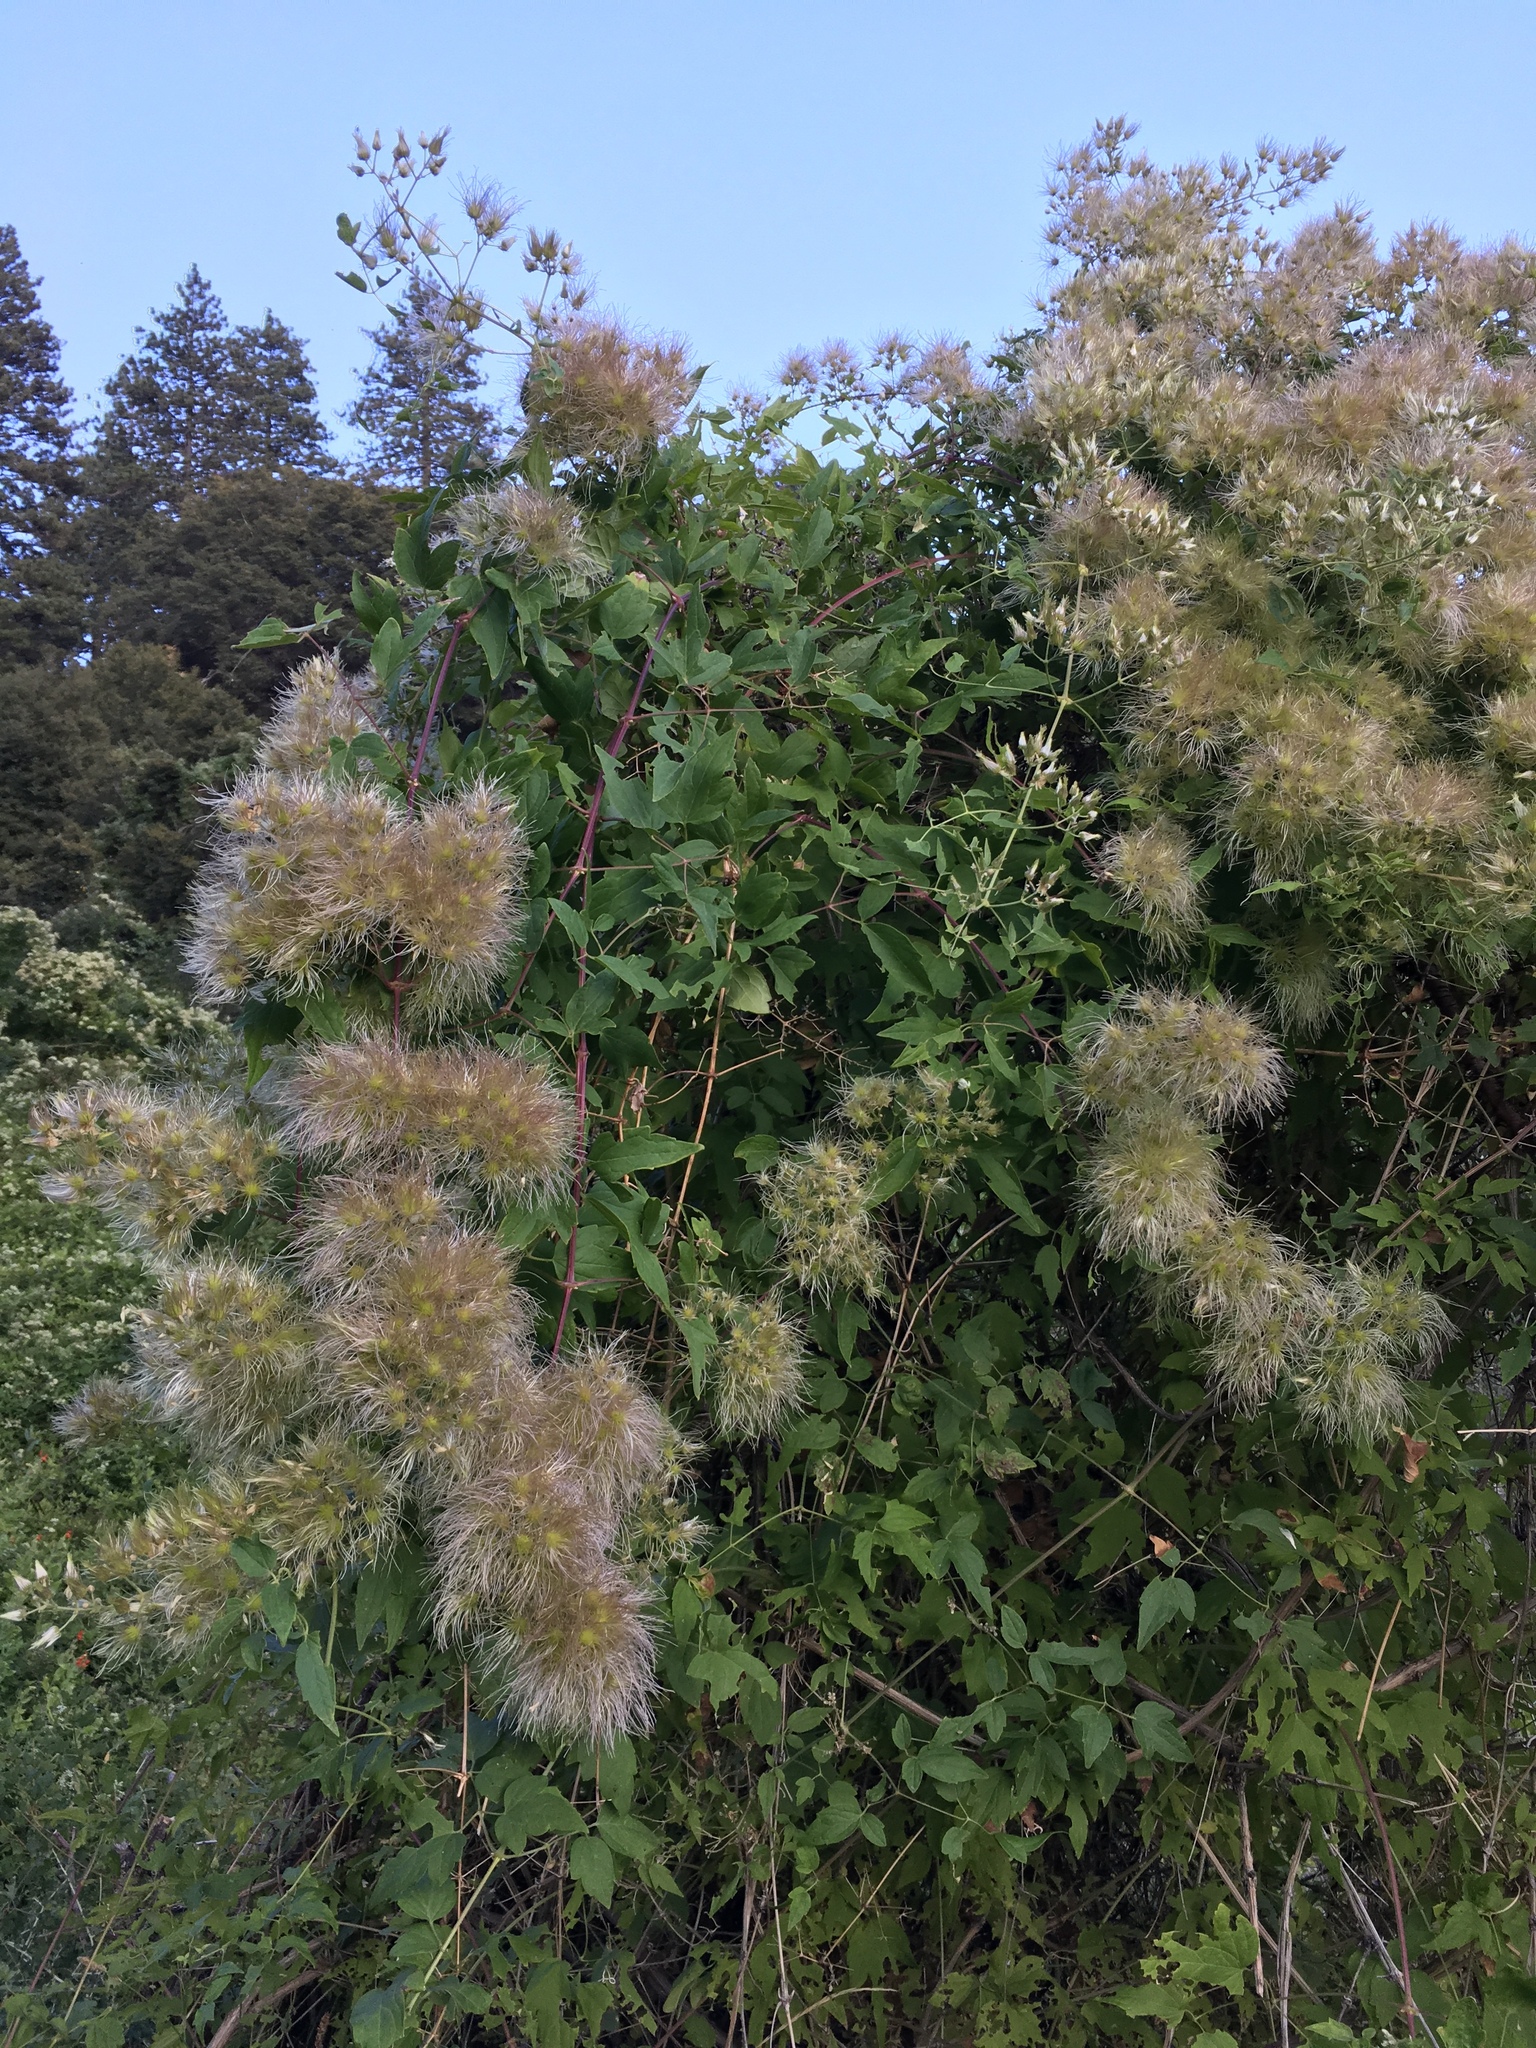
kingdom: Plantae
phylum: Tracheophyta
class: Magnoliopsida
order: Ranunculales
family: Ranunculaceae
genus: Clematis
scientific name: Clematis ligusticifolia
